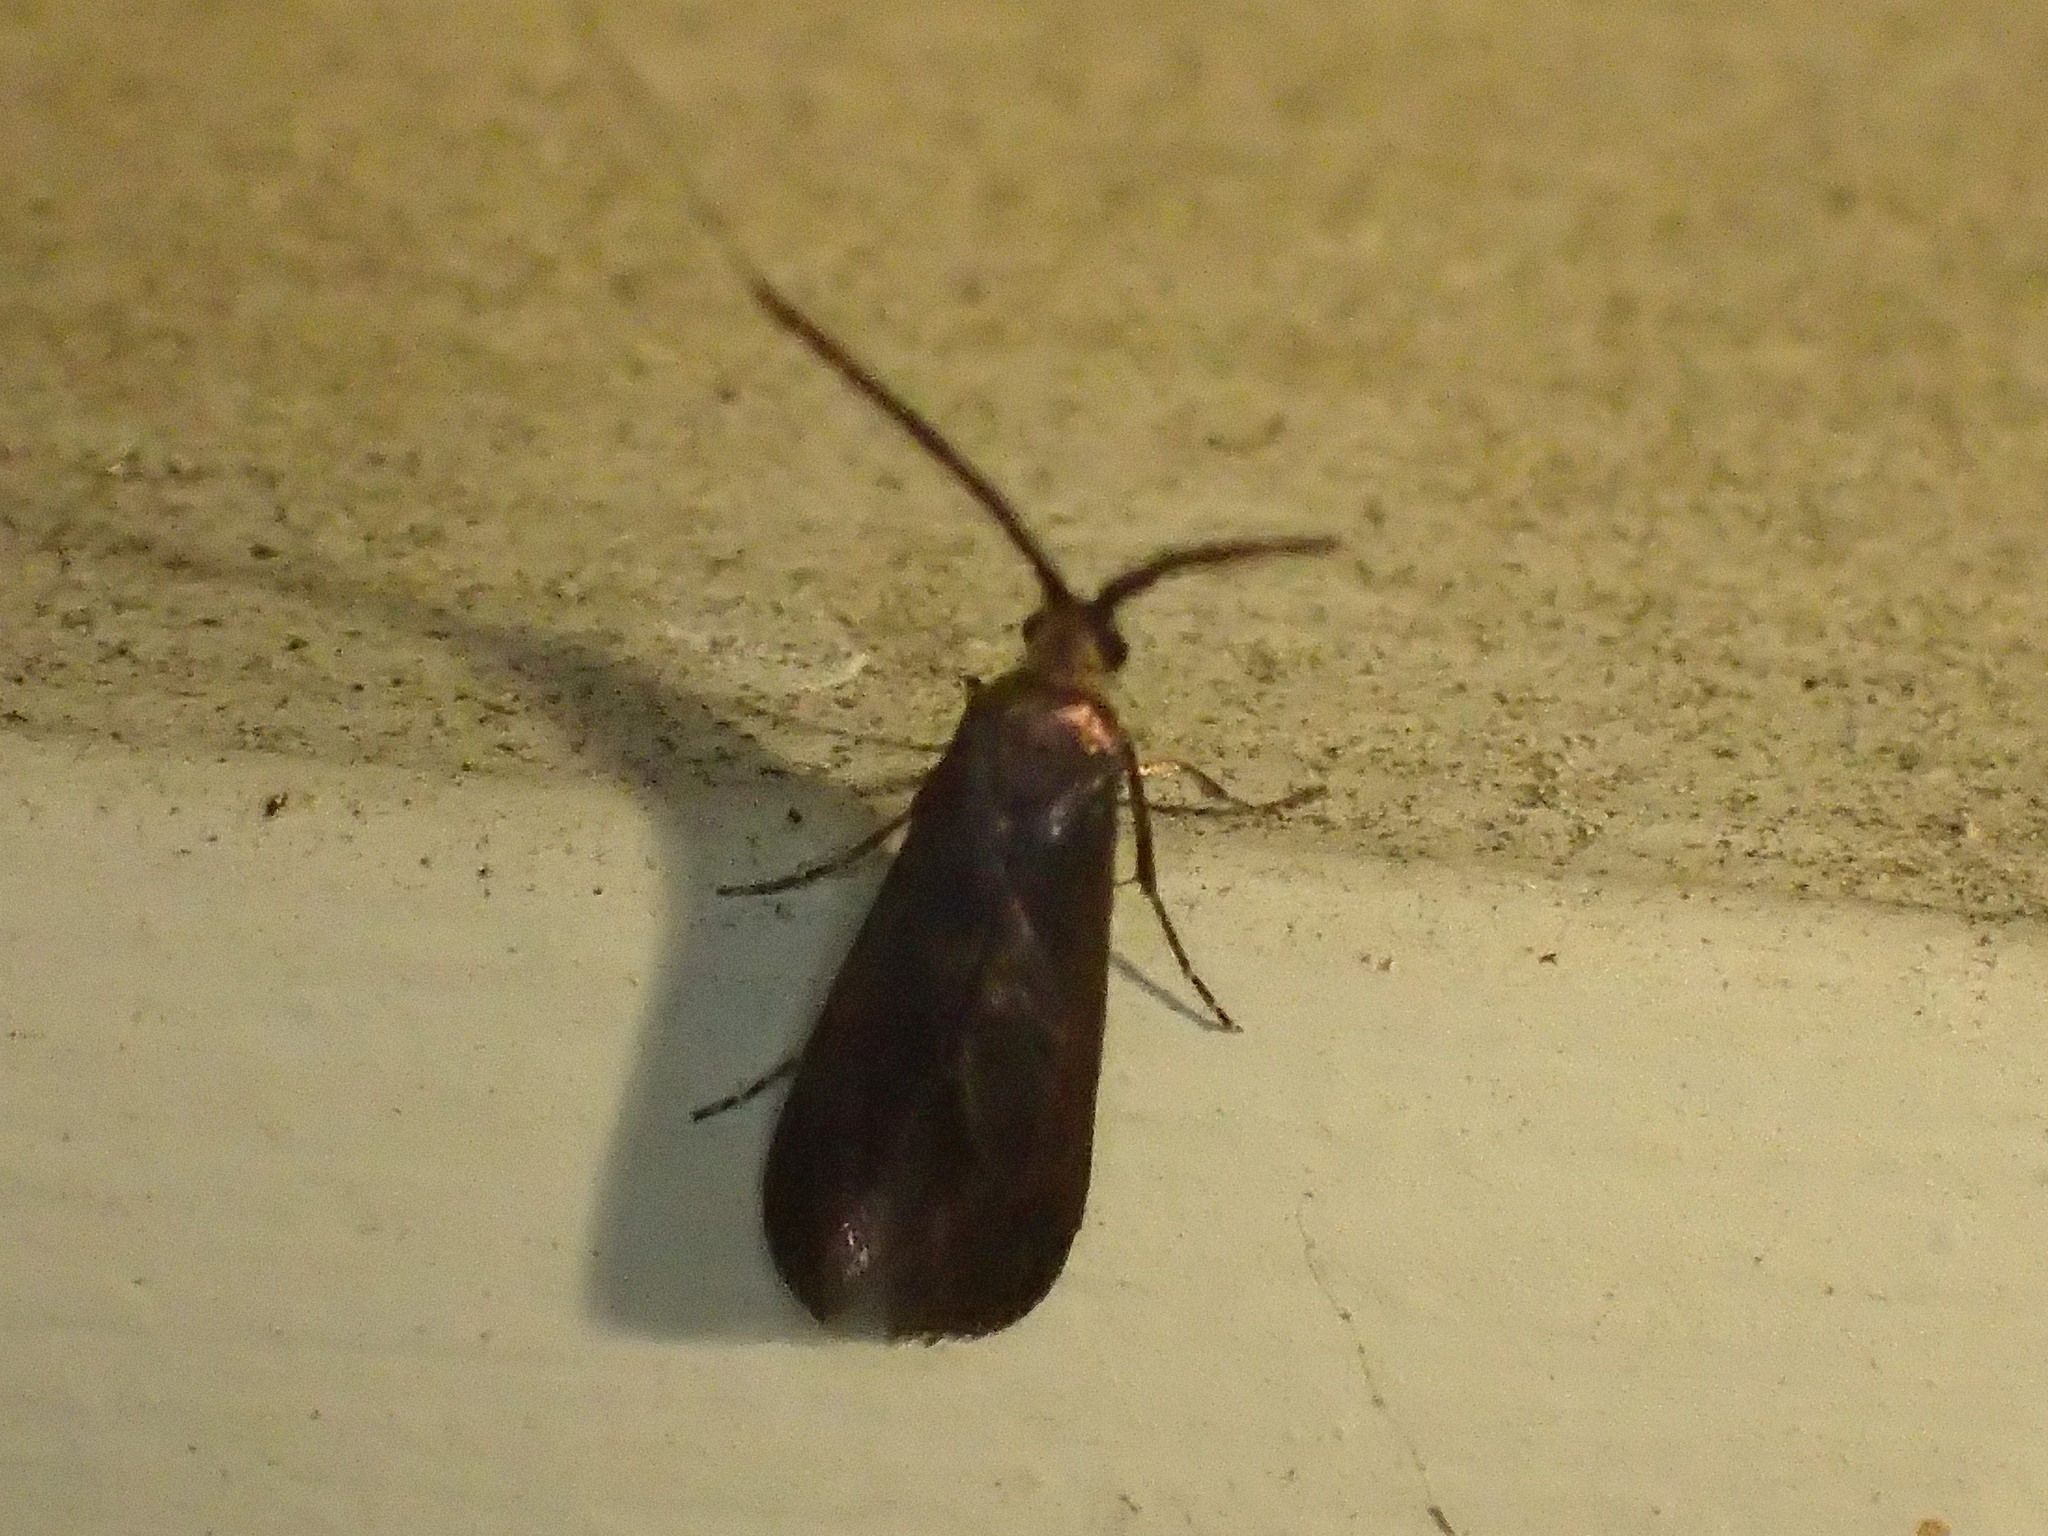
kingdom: Animalia
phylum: Arthropoda
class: Insecta
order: Lepidoptera
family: Adelidae
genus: Adela
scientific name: Adela caeruleella
